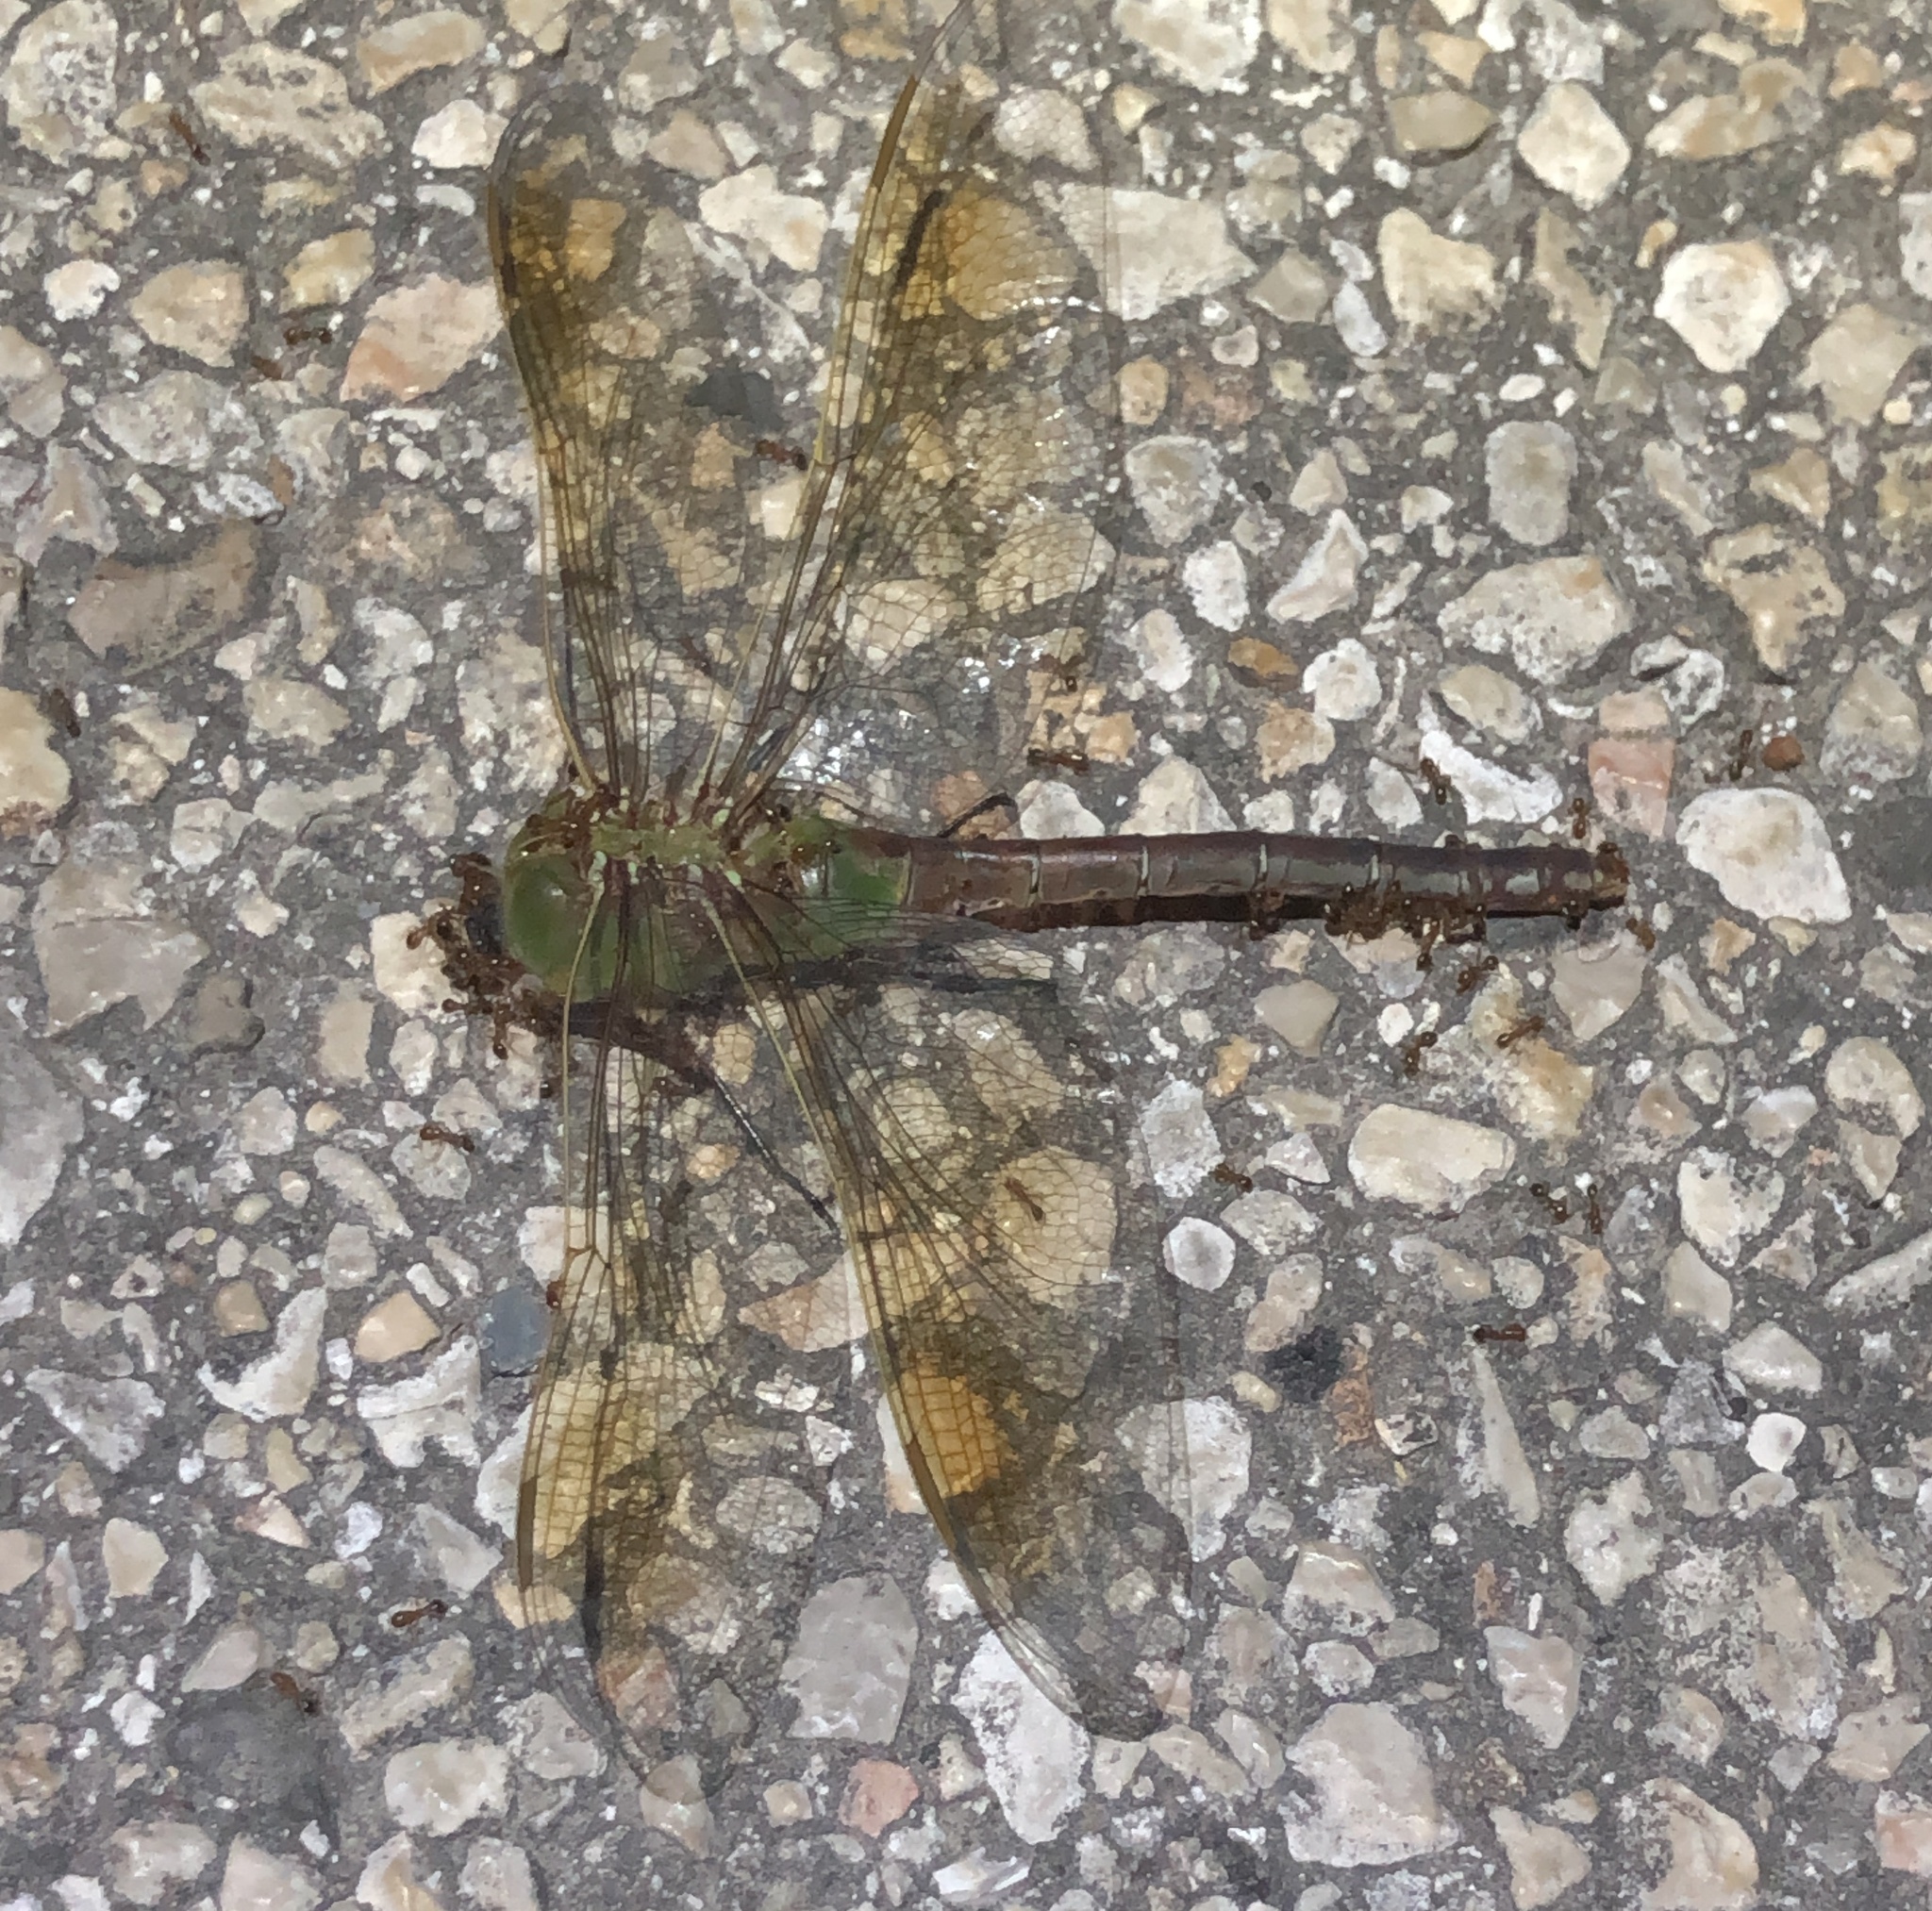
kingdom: Animalia
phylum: Arthropoda
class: Insecta
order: Odonata
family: Aeshnidae
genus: Anax
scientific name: Anax junius
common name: Common green darner
